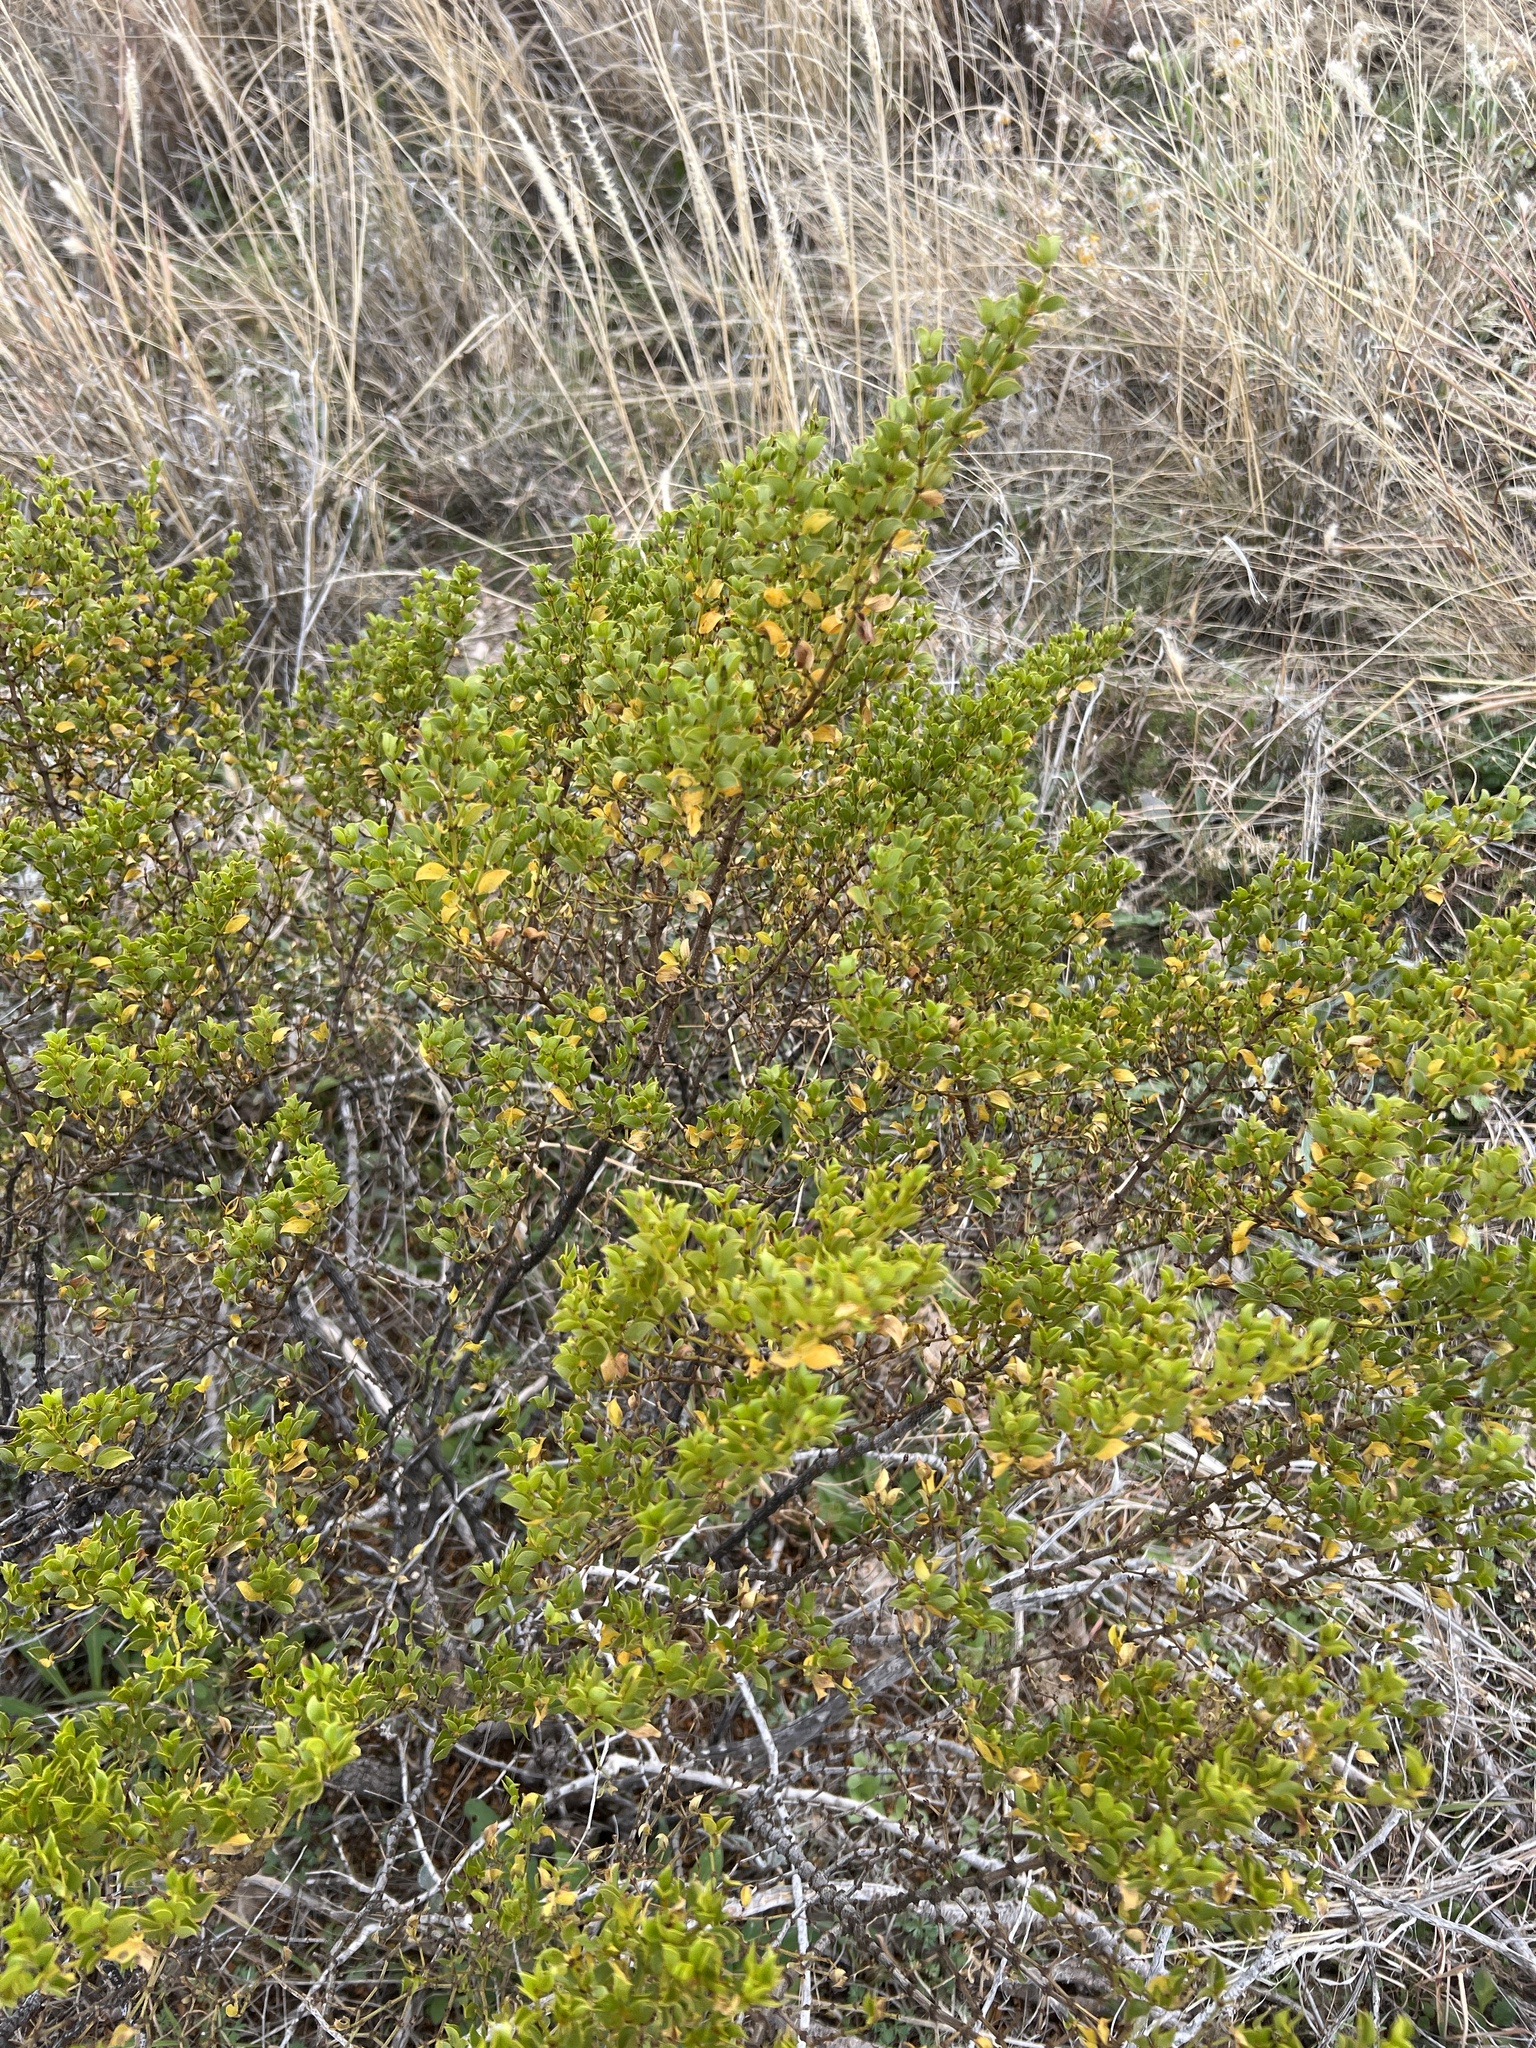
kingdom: Plantae
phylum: Tracheophyta
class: Magnoliopsida
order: Zygophyllales
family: Zygophyllaceae
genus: Larrea
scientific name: Larrea tridentata
